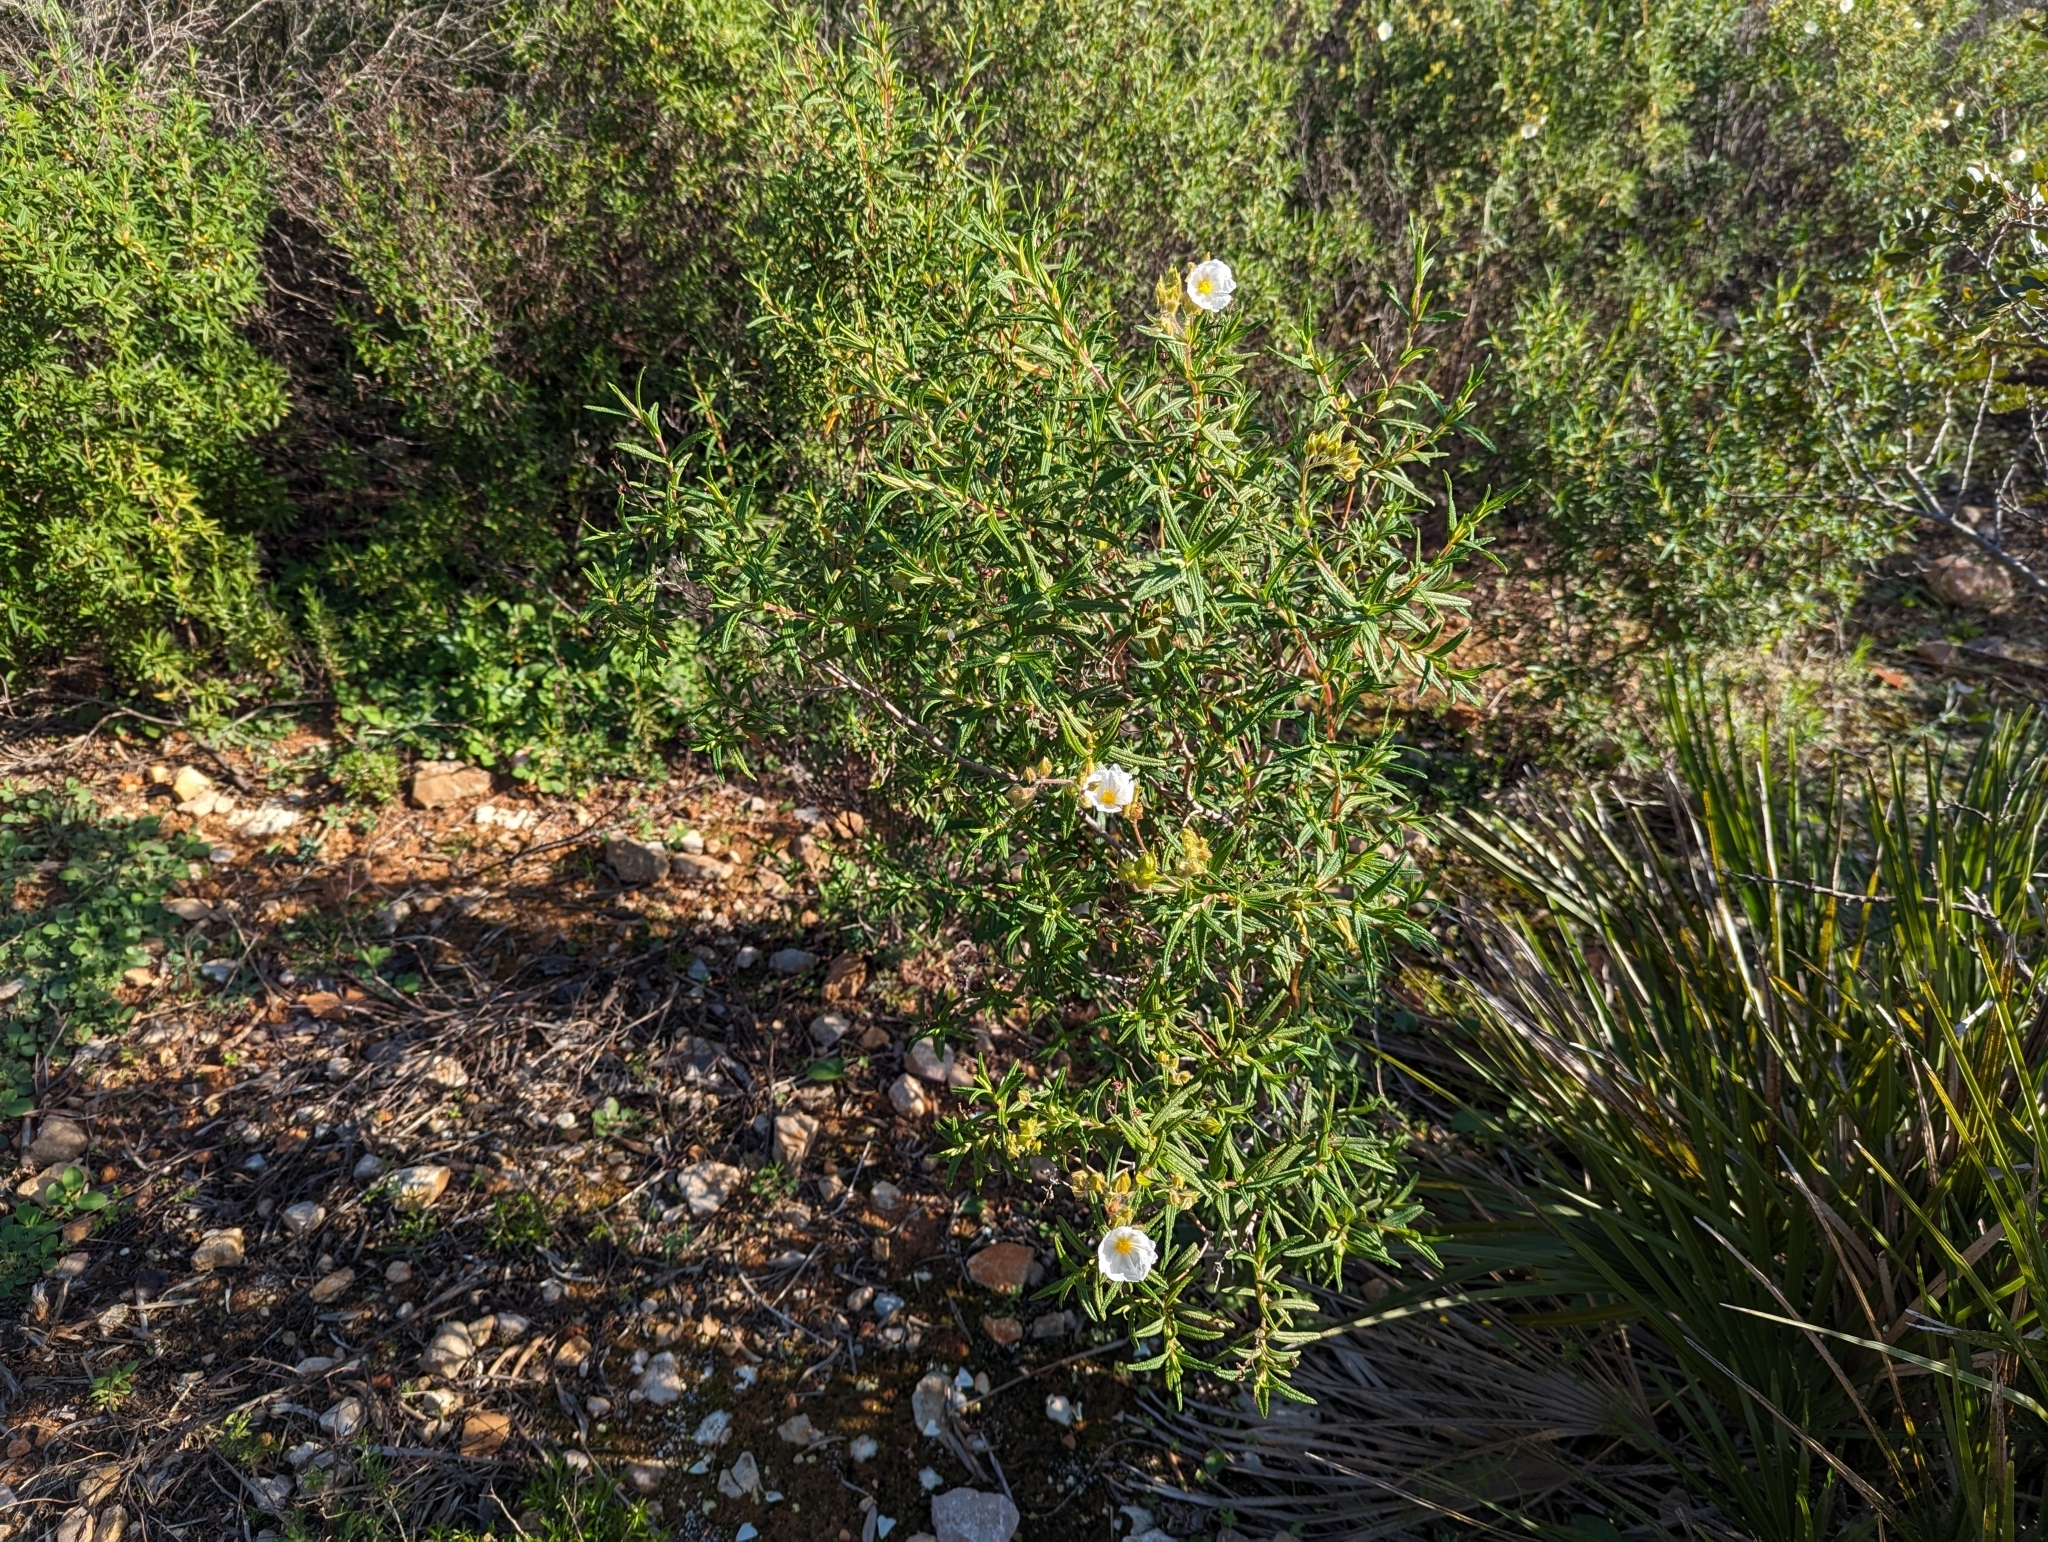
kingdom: Plantae
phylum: Tracheophyta
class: Magnoliopsida
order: Malvales
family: Cistaceae
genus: Cistus
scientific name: Cistus monspeliensis
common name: Montpelier cistus
